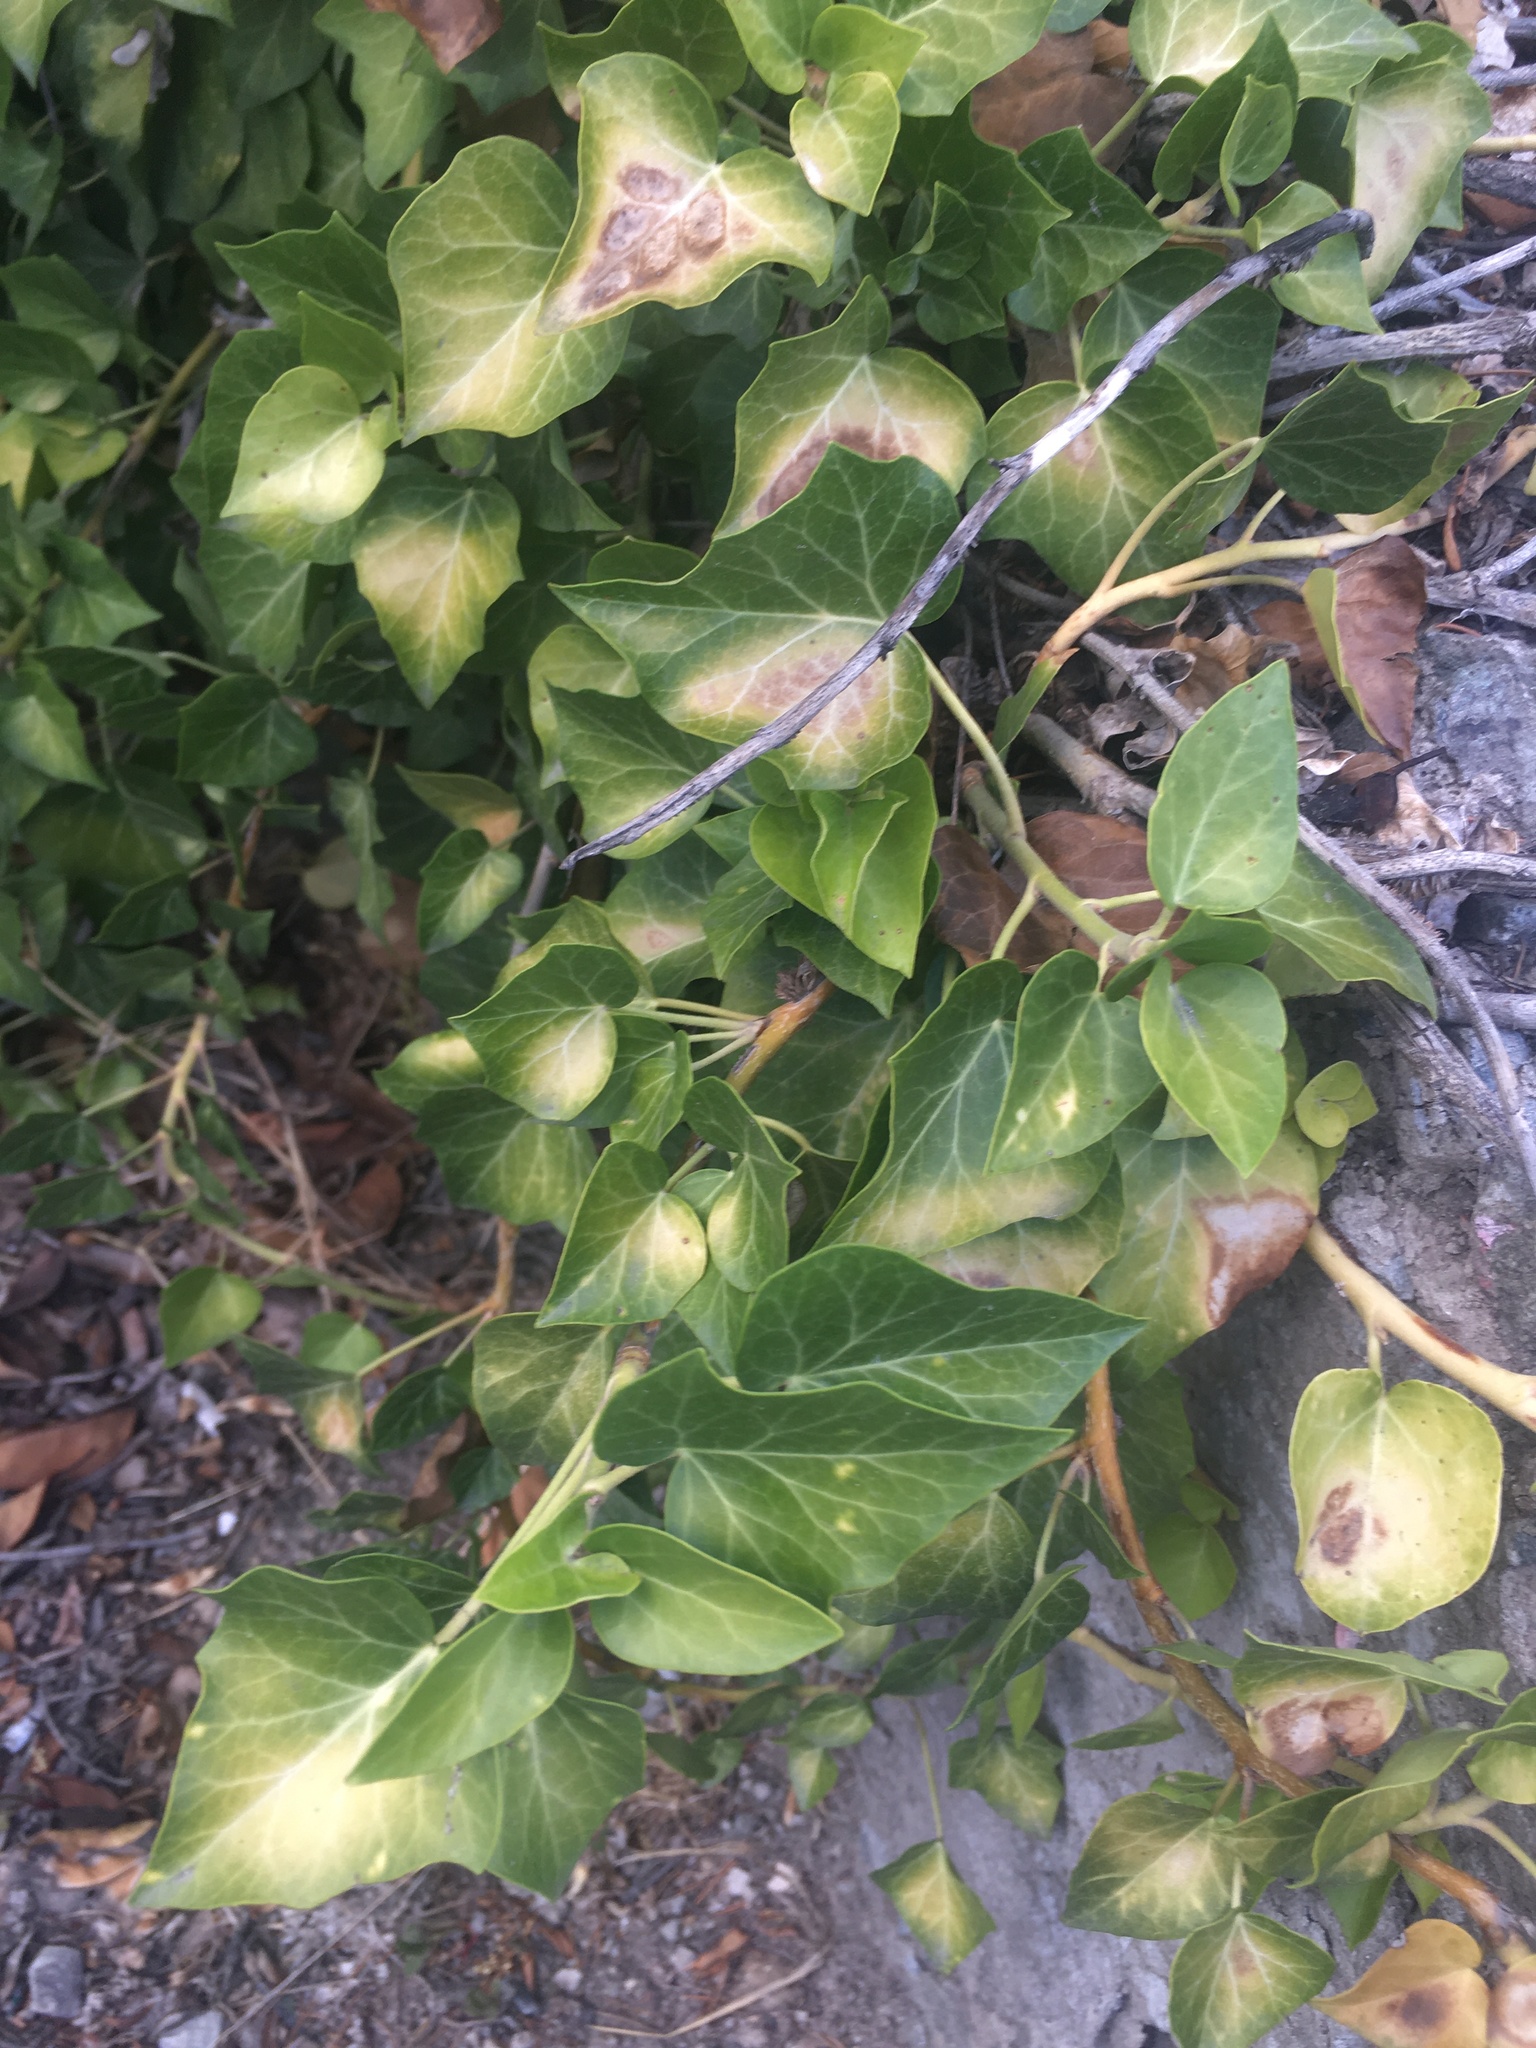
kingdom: Plantae
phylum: Tracheophyta
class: Magnoliopsida
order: Apiales
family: Araliaceae
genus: Hedera
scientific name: Hedera helix
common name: Ivy
